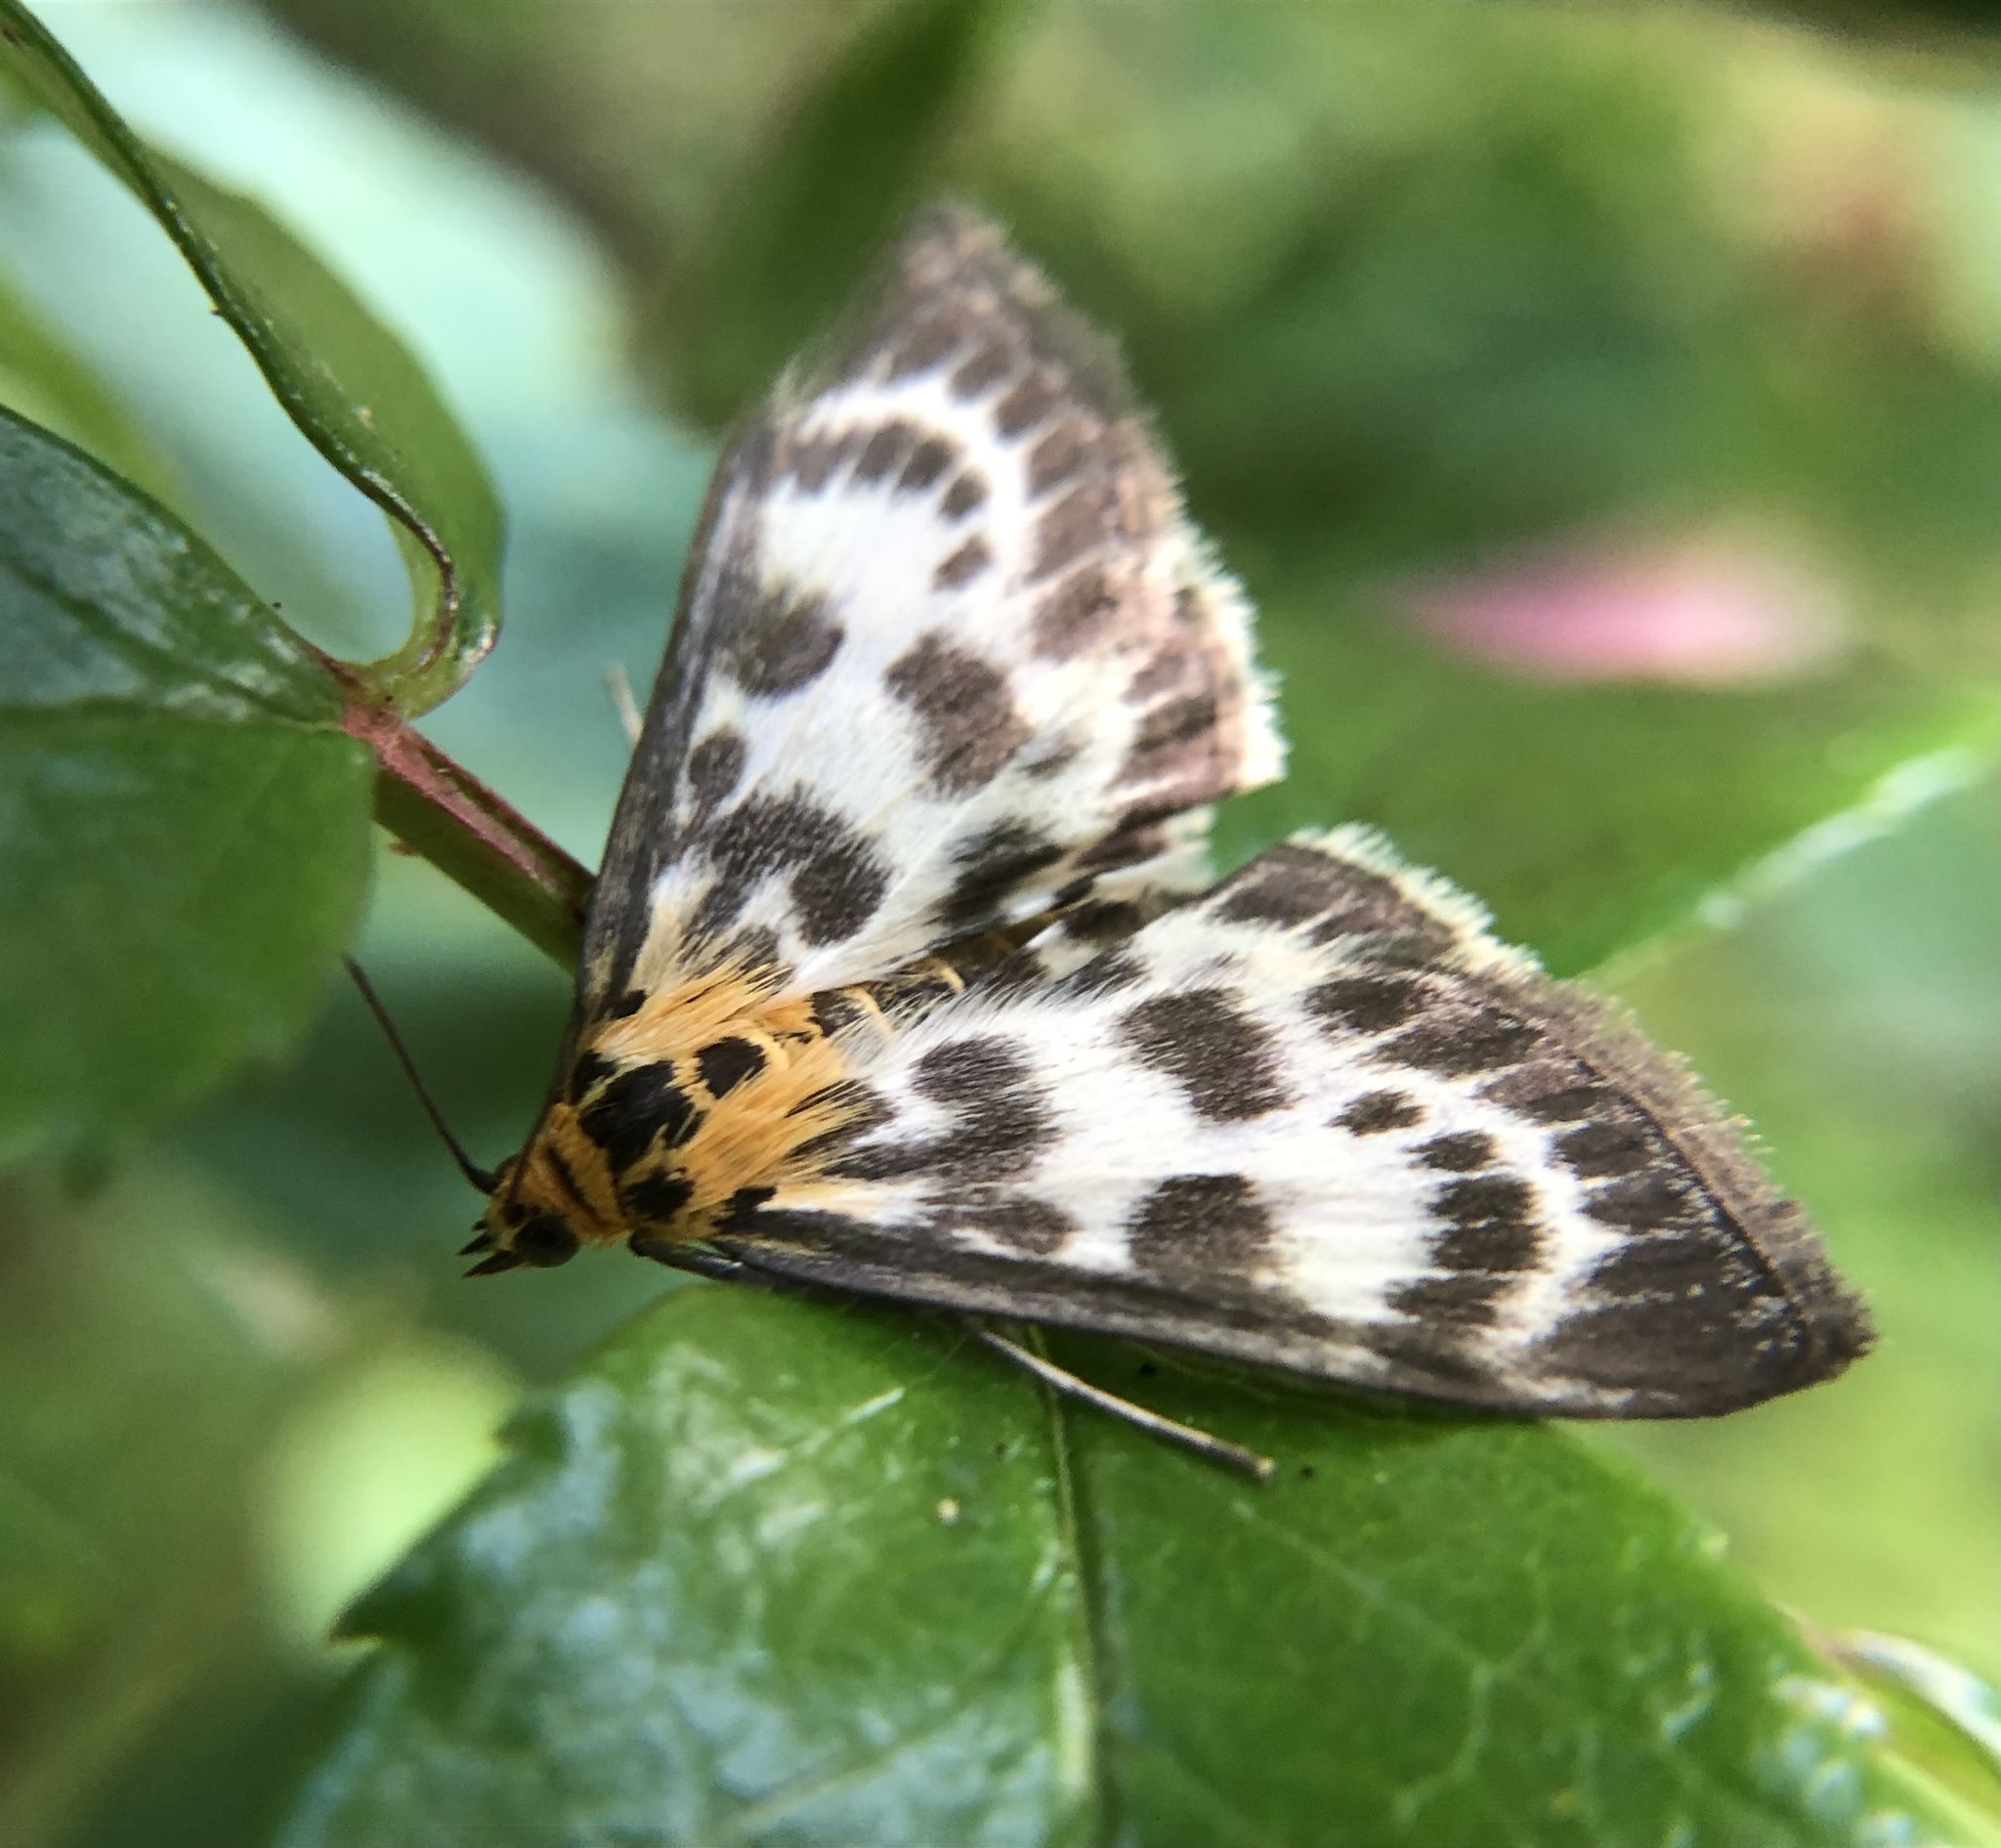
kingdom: Animalia
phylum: Arthropoda
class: Insecta
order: Lepidoptera
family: Crambidae
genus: Anania
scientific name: Anania hortulata
